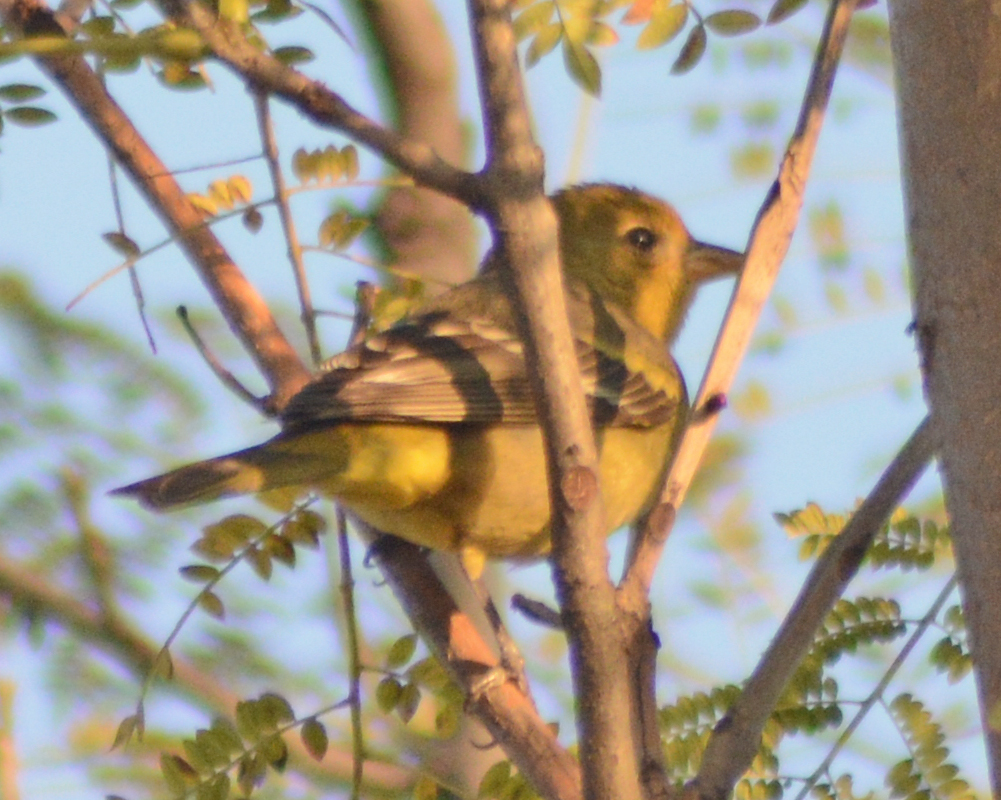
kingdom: Animalia
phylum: Chordata
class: Aves
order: Passeriformes
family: Cardinalidae
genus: Piranga
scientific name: Piranga ludoviciana
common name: Western tanager
